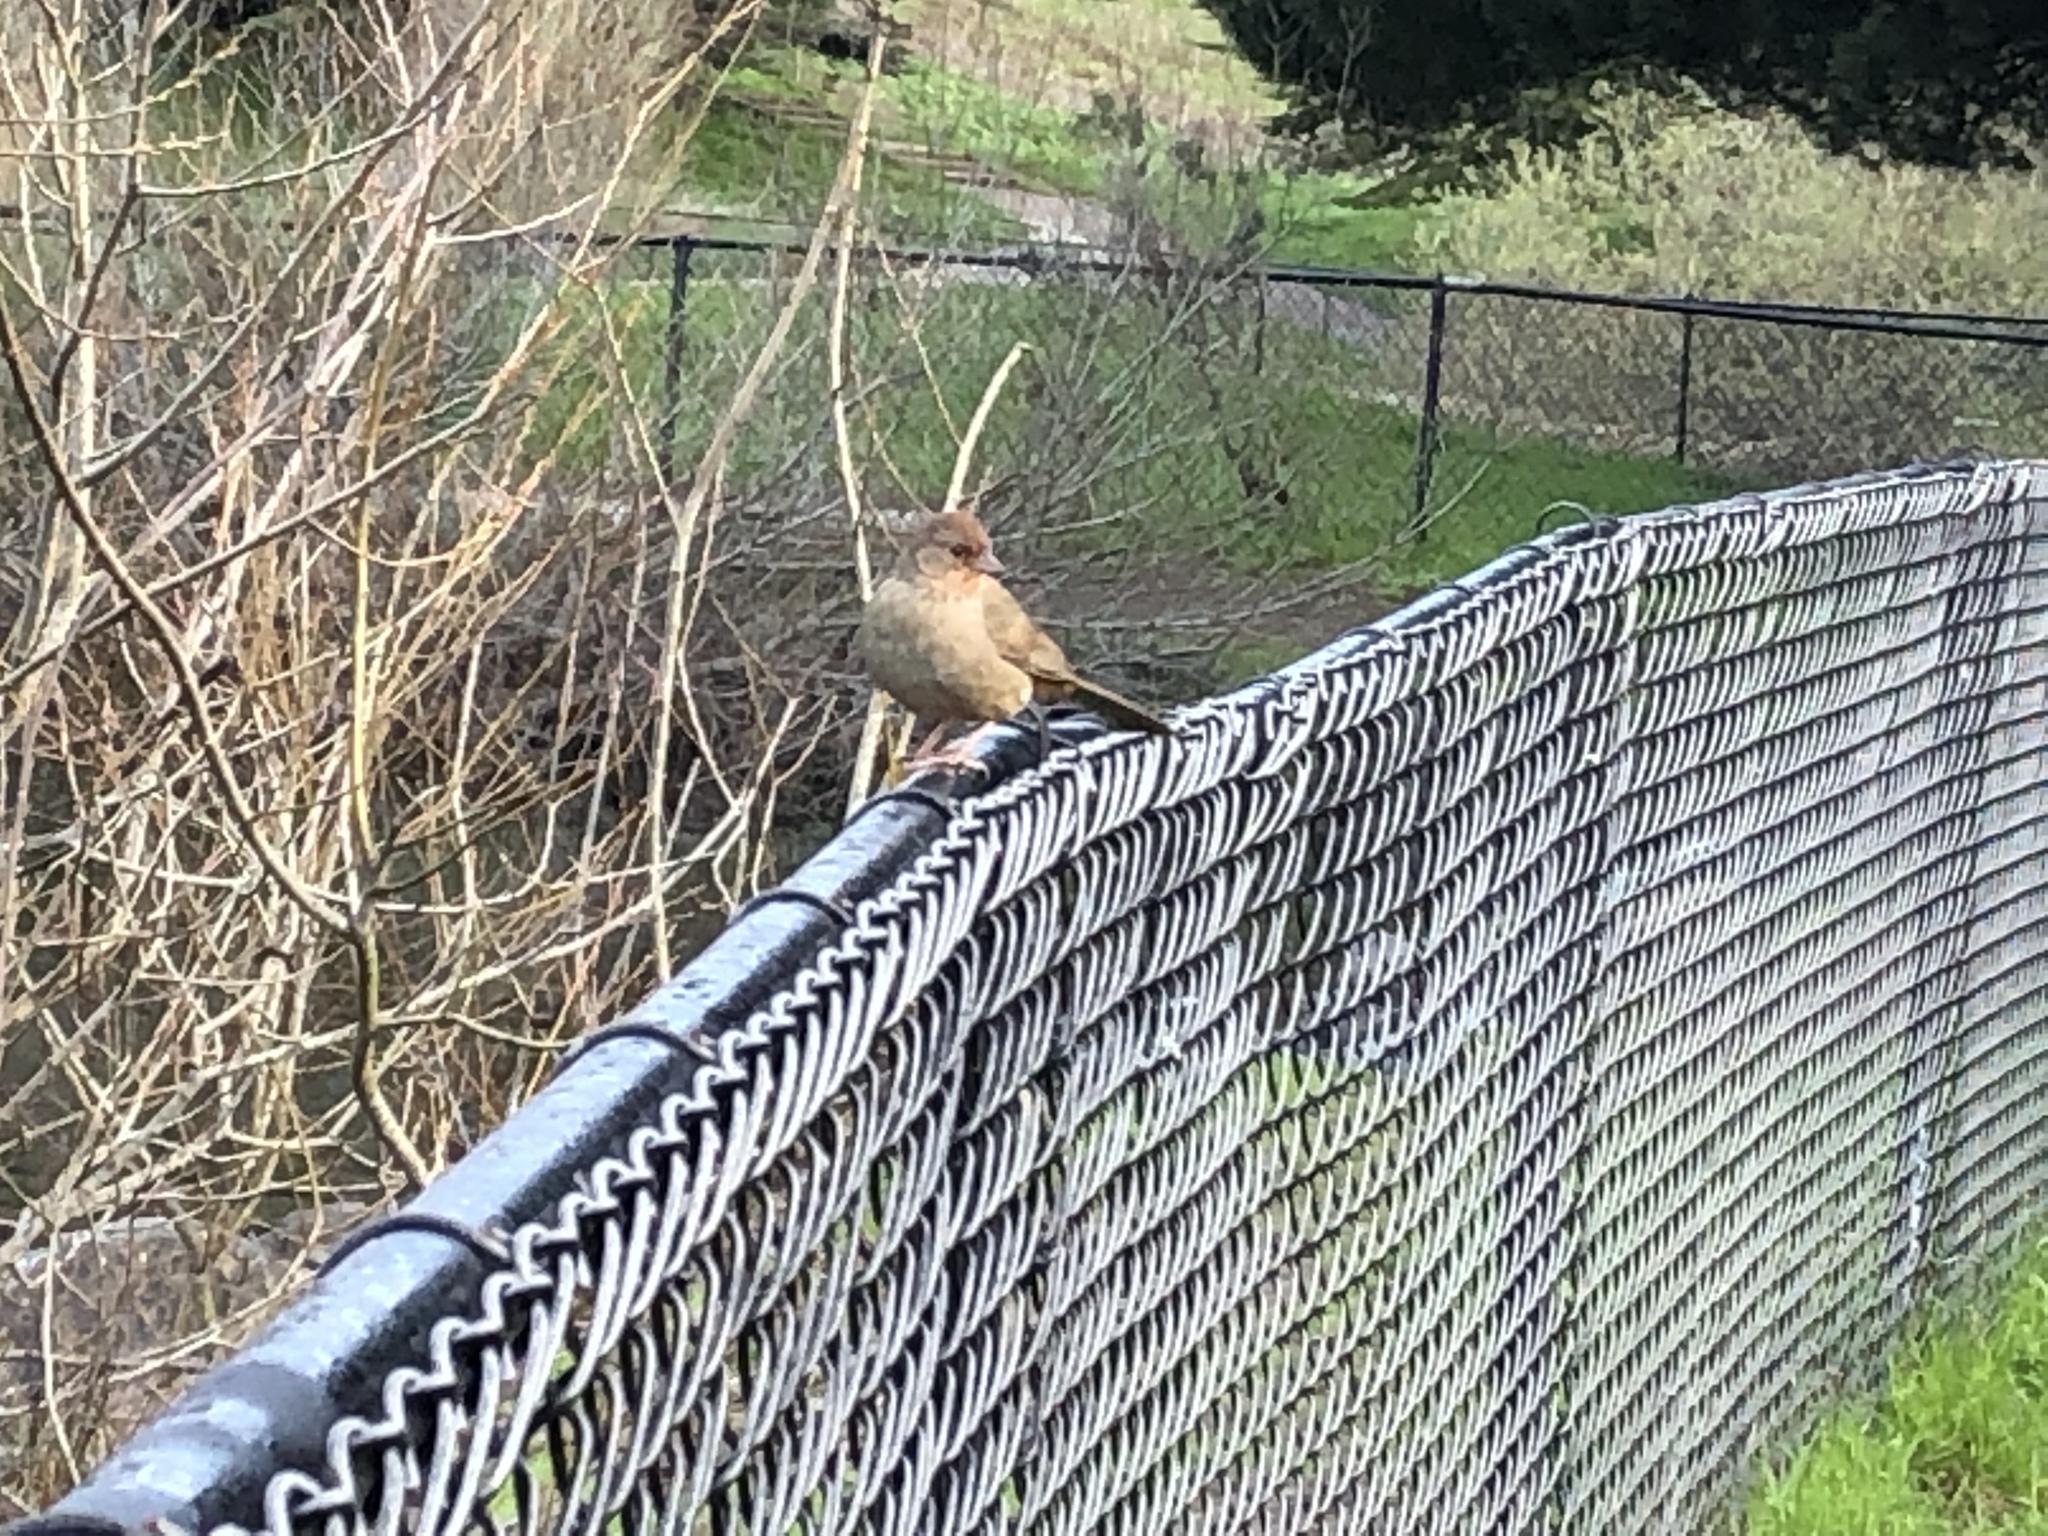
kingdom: Animalia
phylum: Chordata
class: Aves
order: Passeriformes
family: Passerellidae
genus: Melozone
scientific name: Melozone crissalis
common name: California towhee
